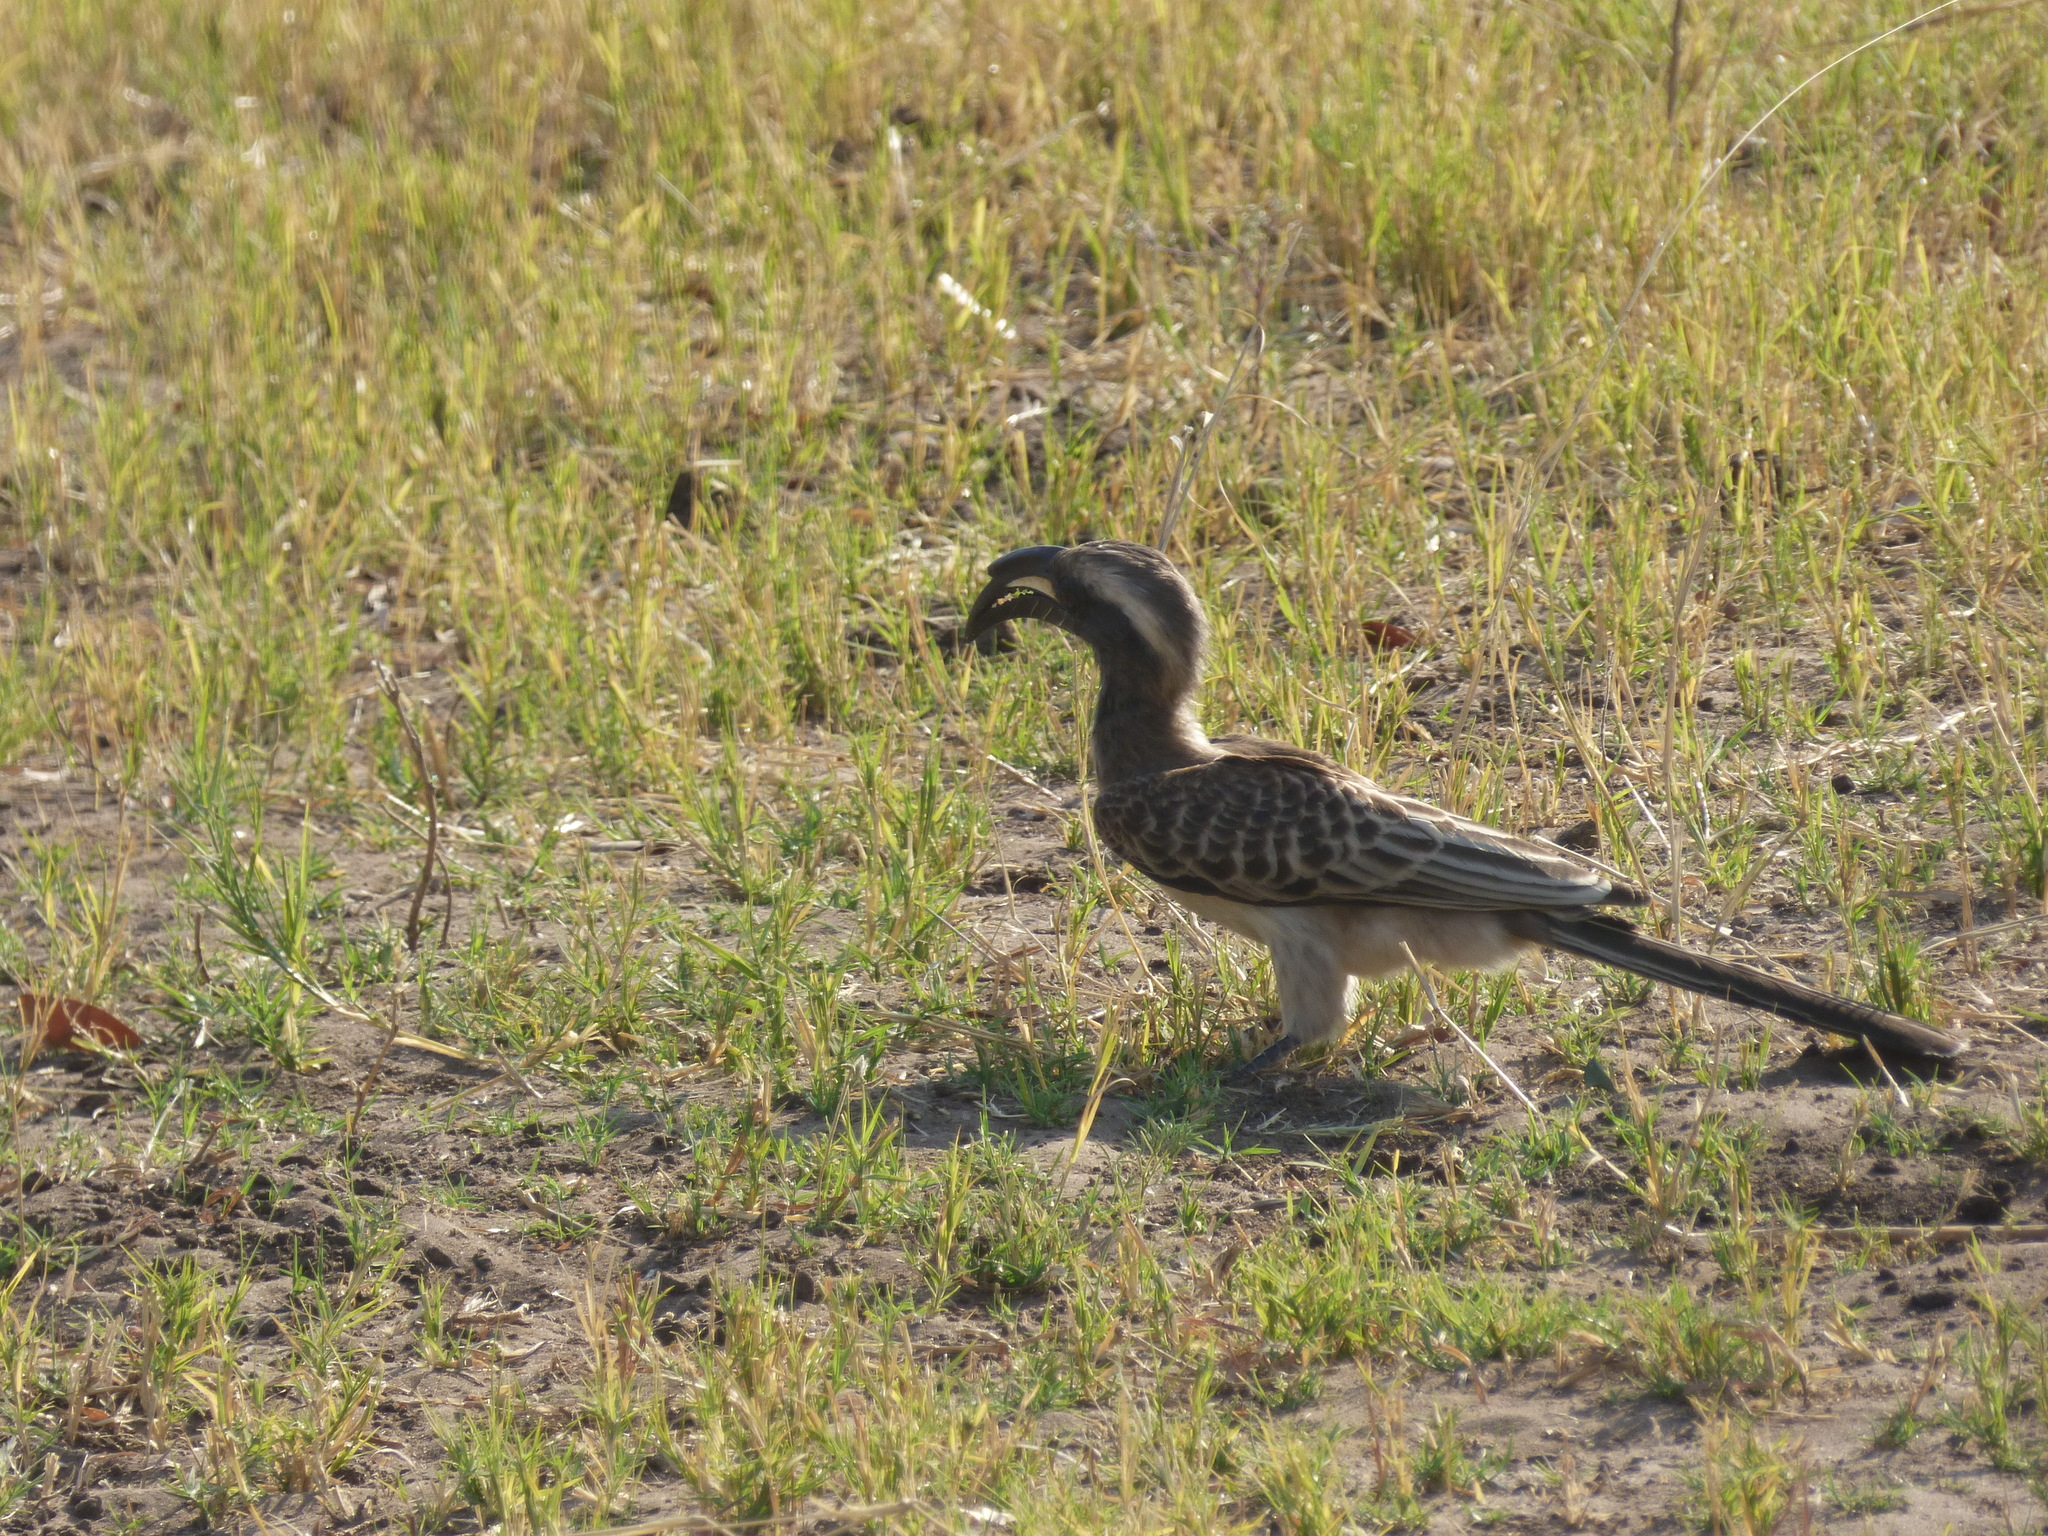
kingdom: Animalia
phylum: Chordata
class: Aves
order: Bucerotiformes
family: Bucerotidae
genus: Lophoceros
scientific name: Lophoceros nasutus
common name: African grey hornbill
